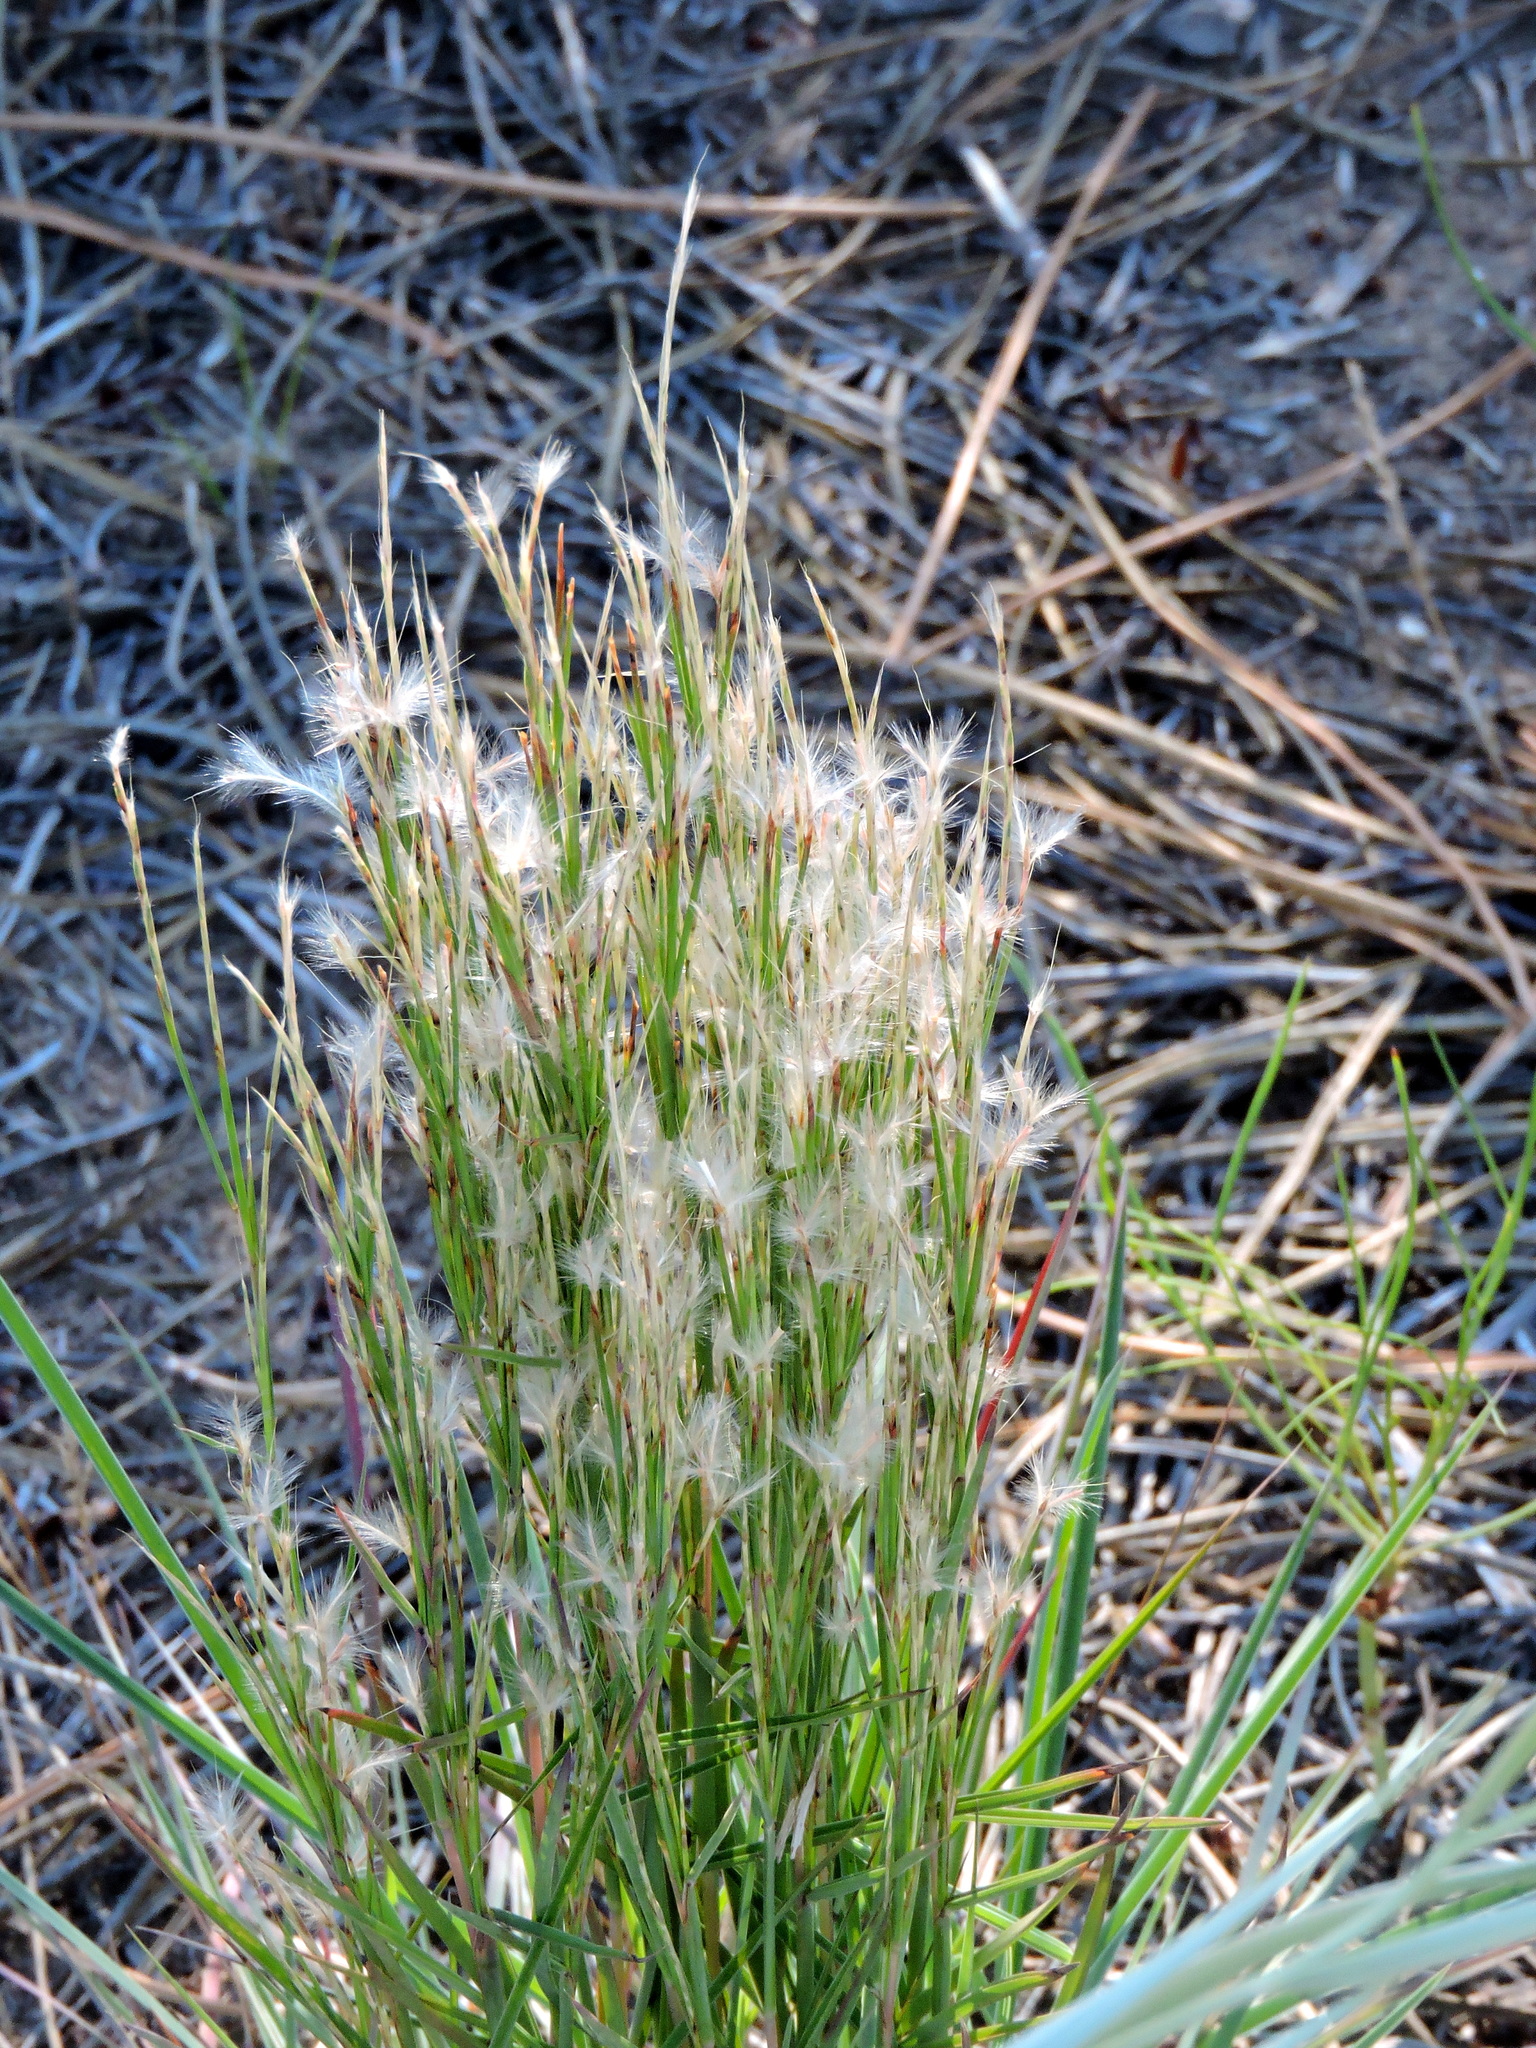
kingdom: Plantae
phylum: Tracheophyta
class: Liliopsida
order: Poales
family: Poaceae
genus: Schizachyrium
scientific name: Schizachyrium spicatum
